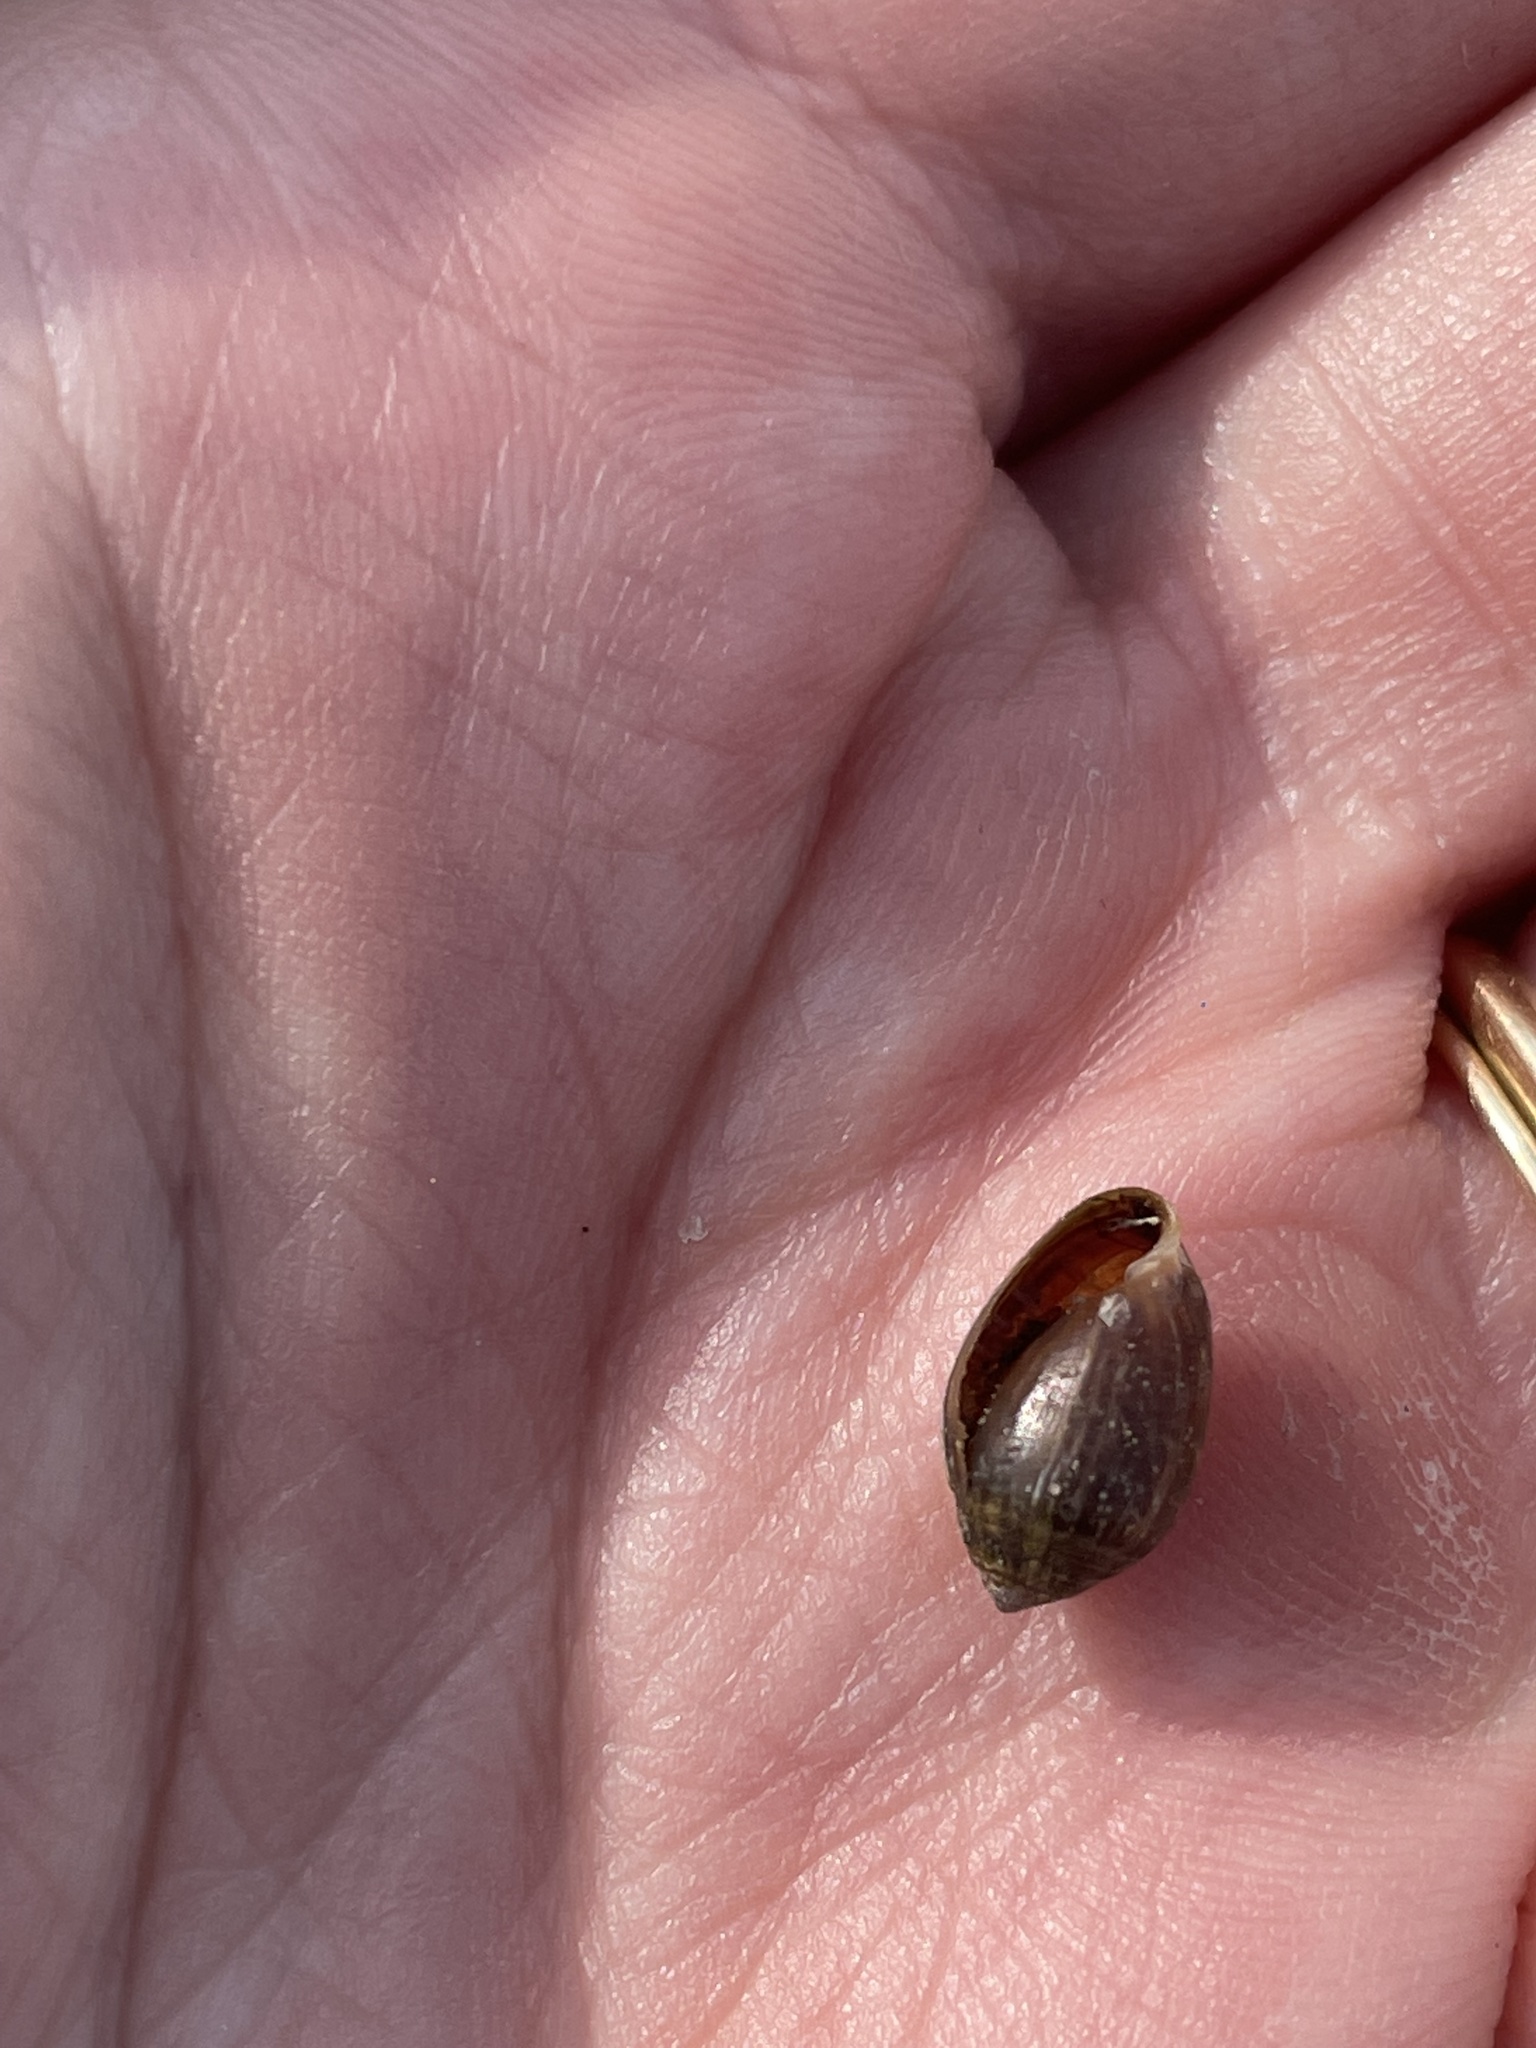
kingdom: Animalia
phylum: Mollusca
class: Gastropoda
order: Ellobiida
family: Ellobiidae
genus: Melampus
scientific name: Melampus bidentatus
